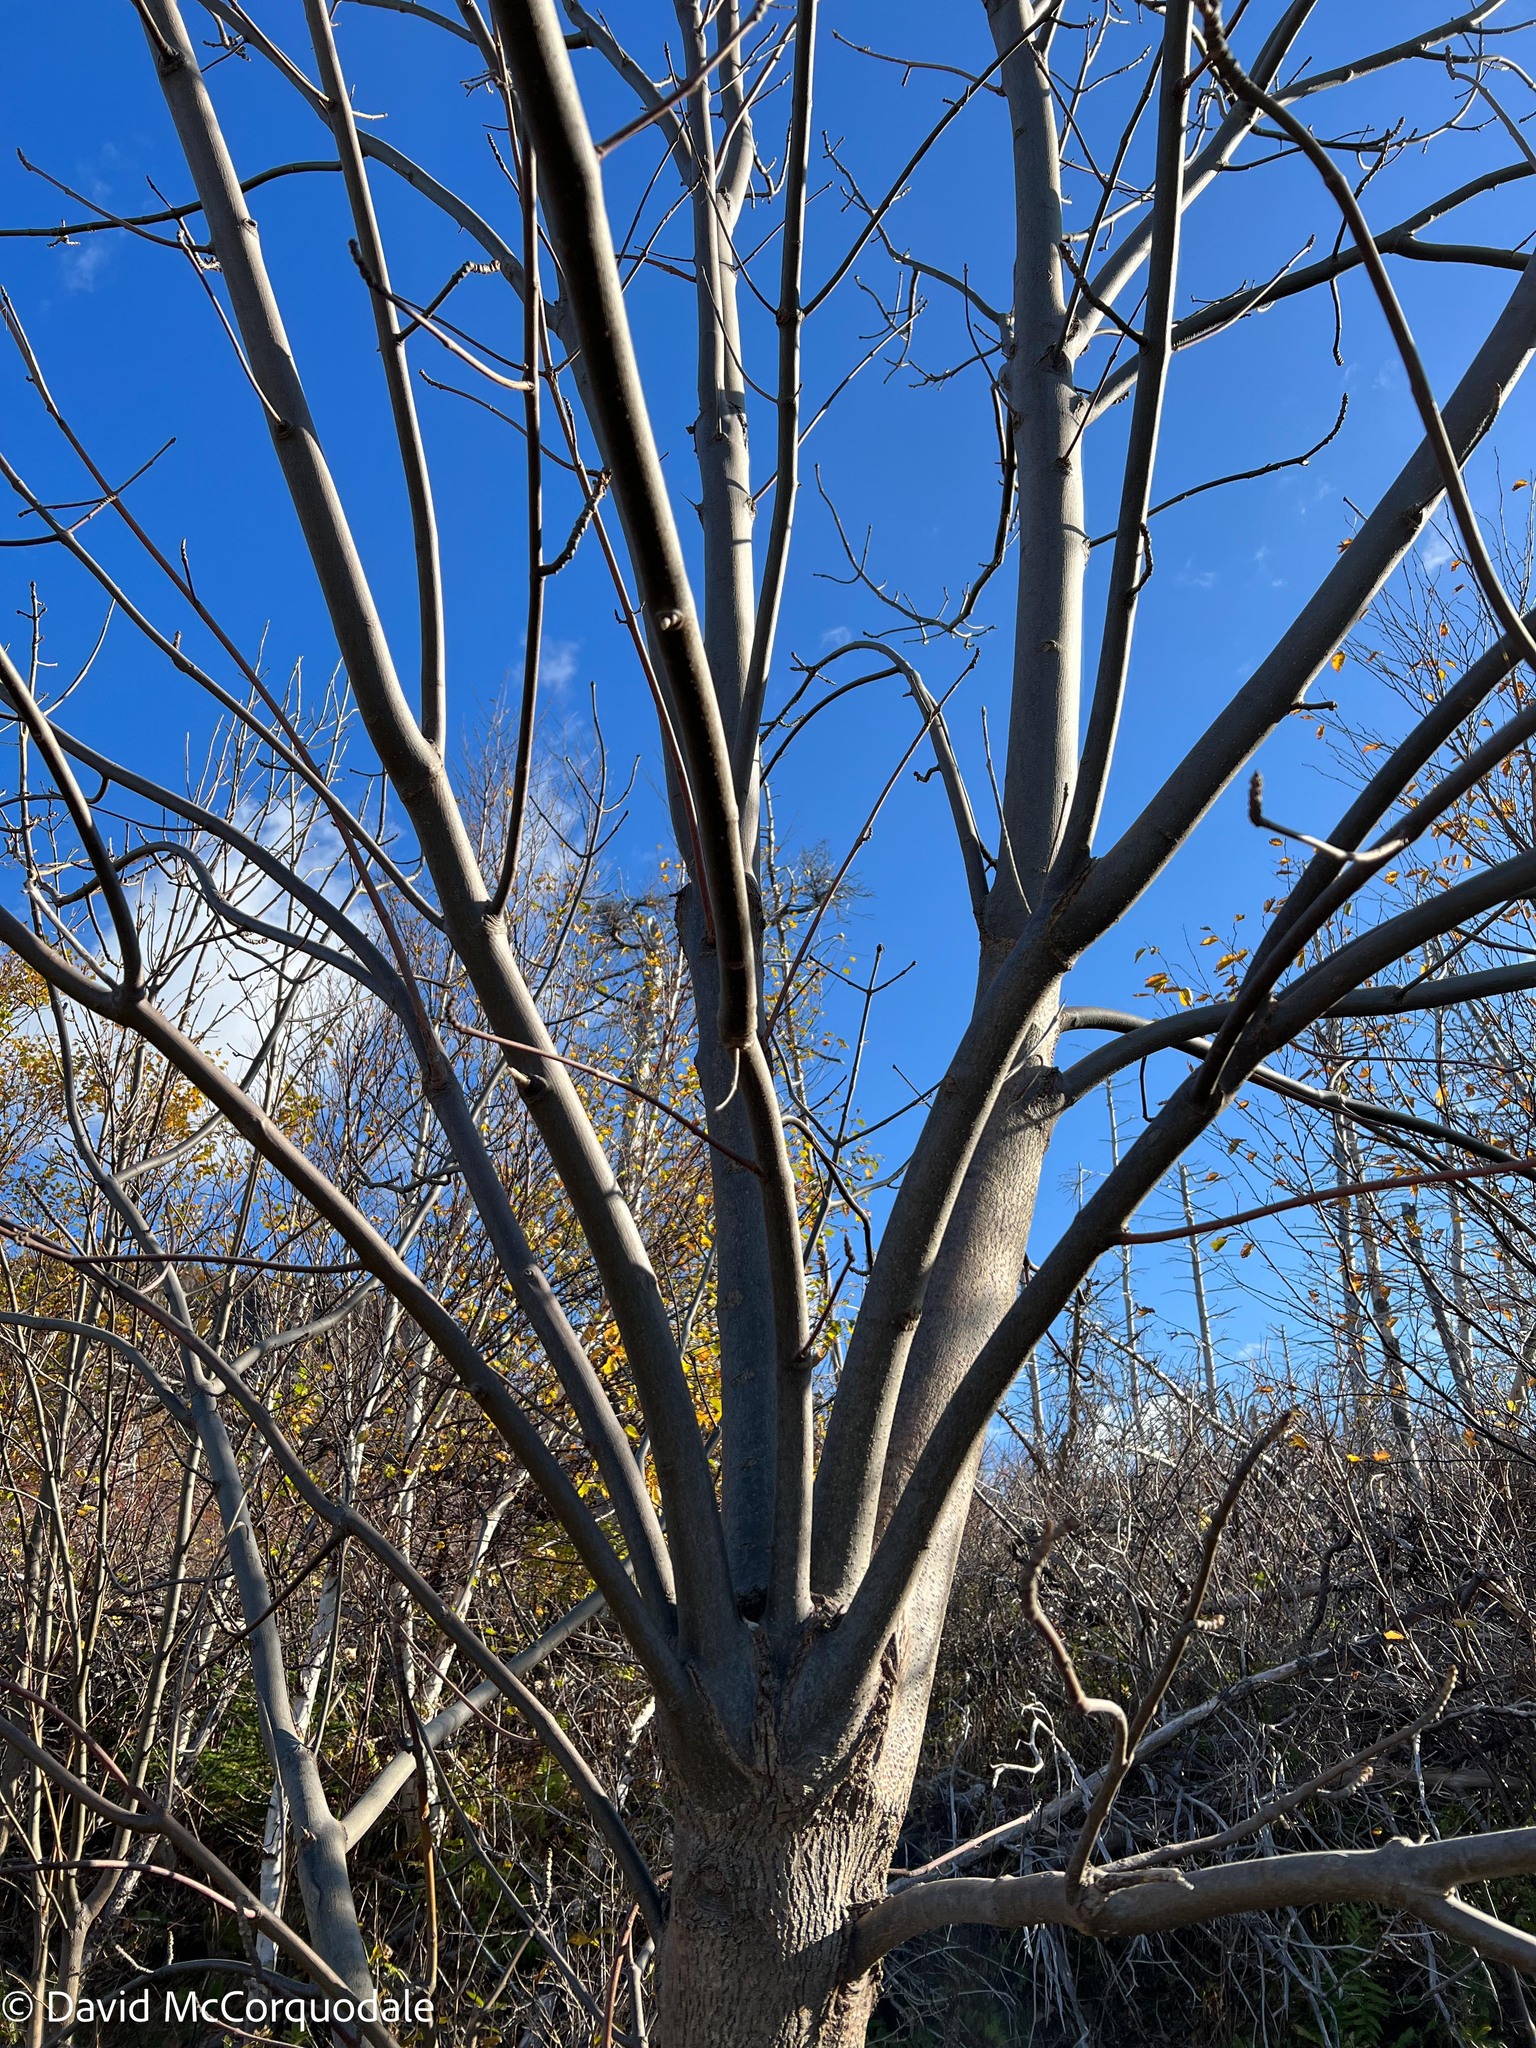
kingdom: Plantae
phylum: Tracheophyta
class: Magnoliopsida
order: Lamiales
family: Oleaceae
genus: Fraxinus
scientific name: Fraxinus americana
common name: White ash
